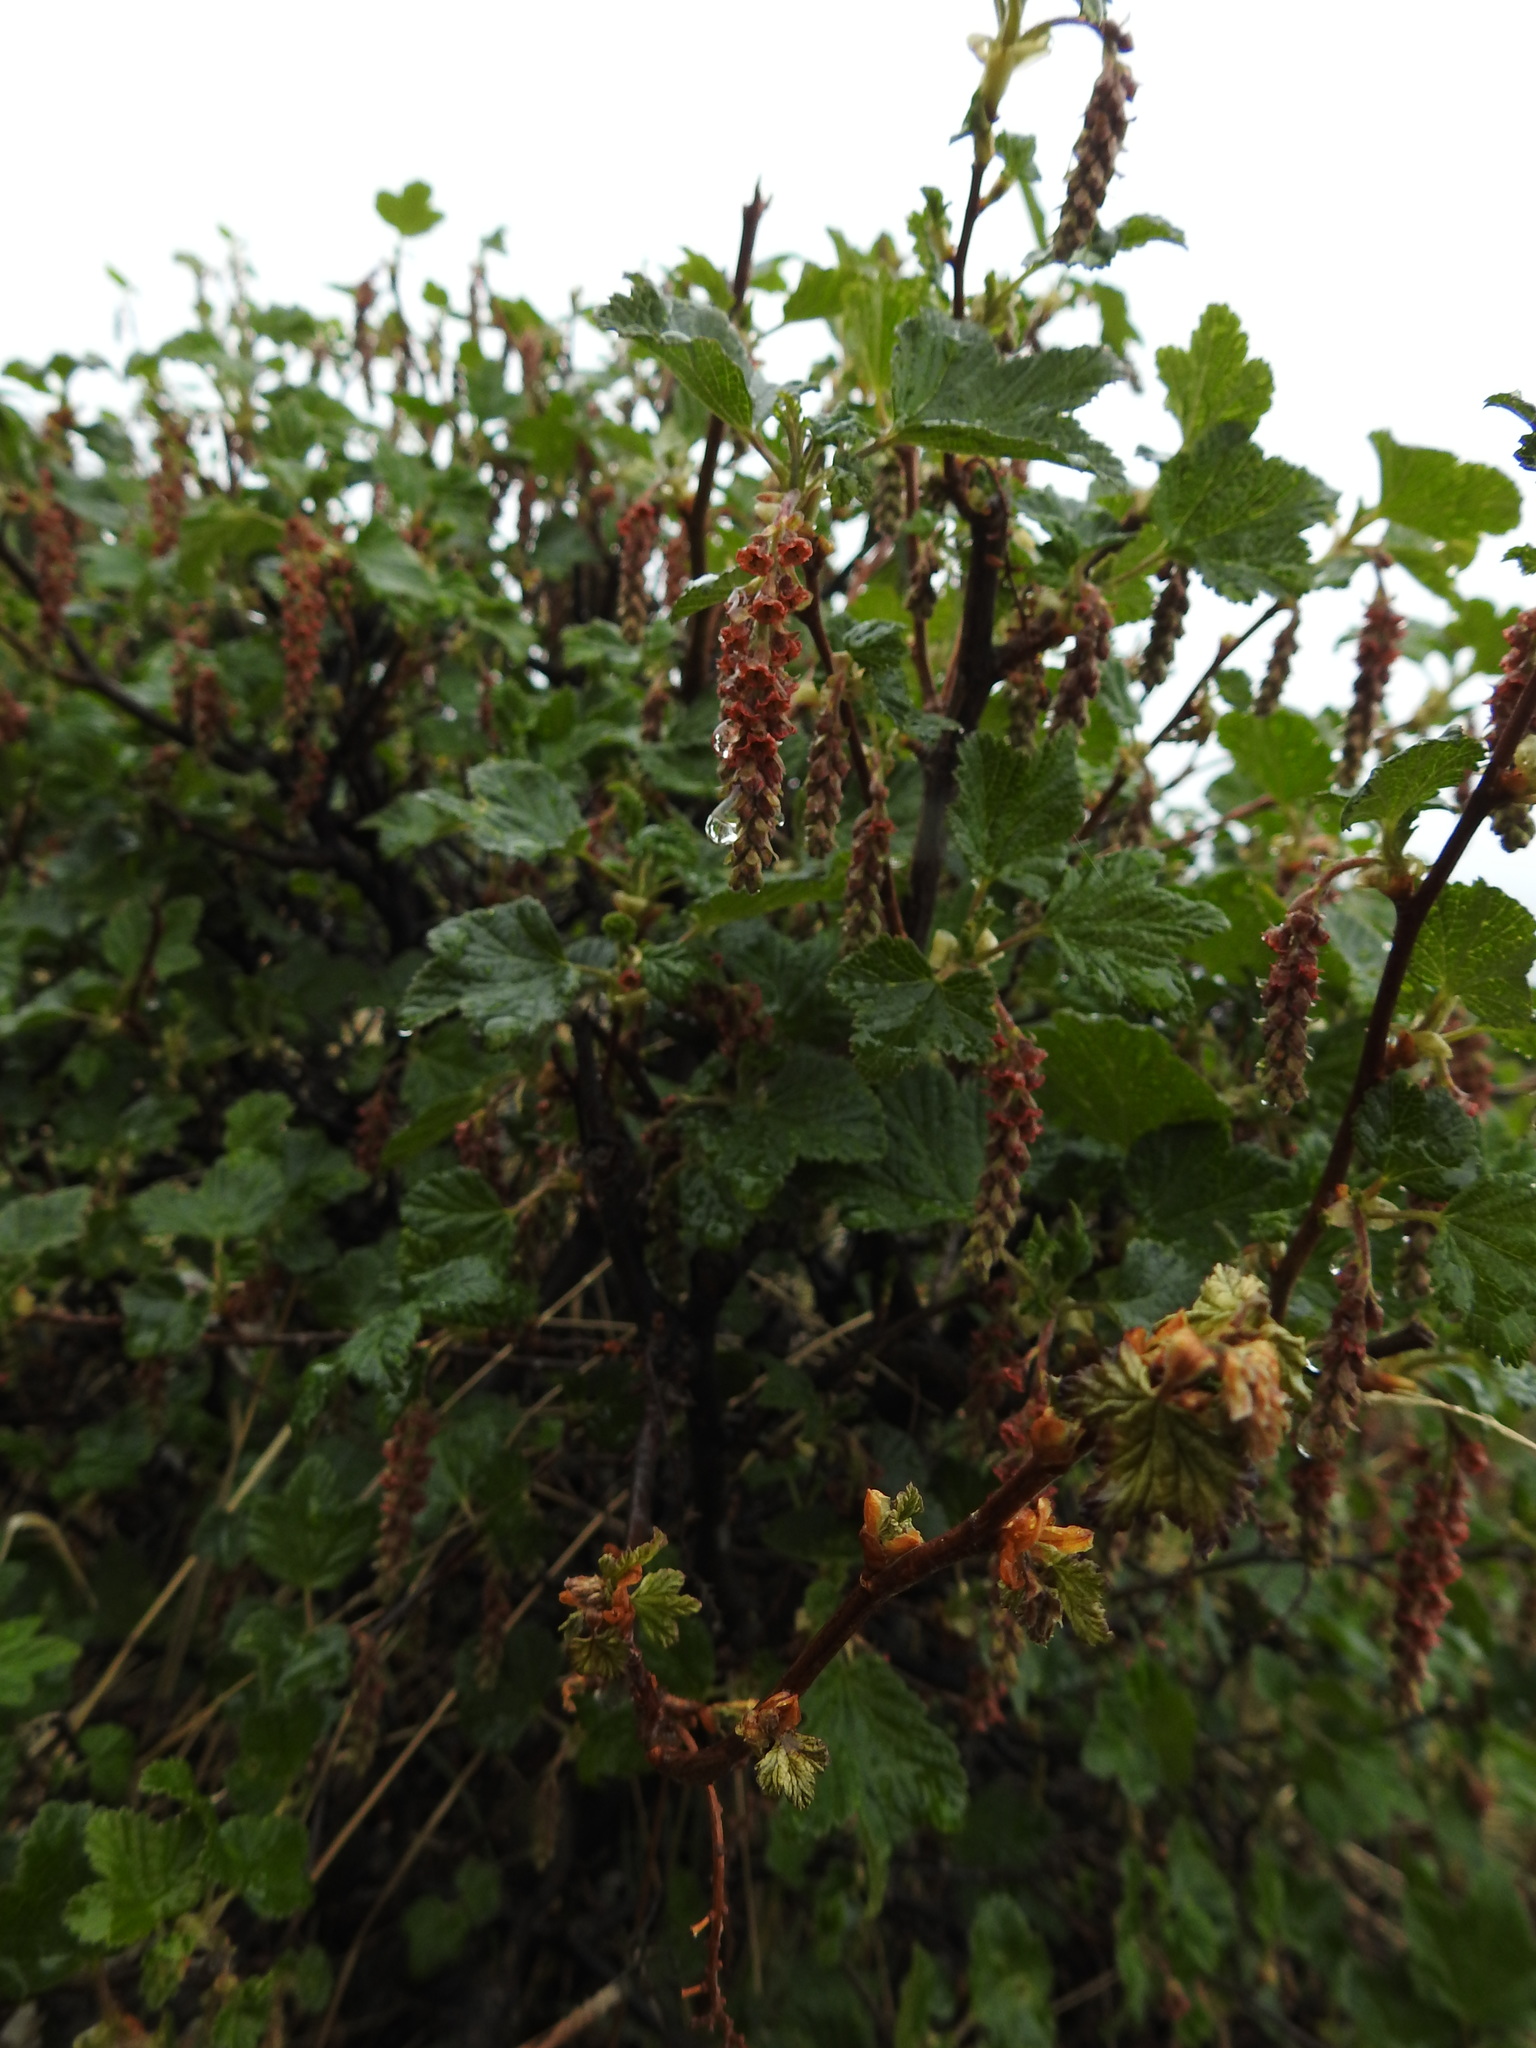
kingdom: Plantae
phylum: Tracheophyta
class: Magnoliopsida
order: Saxifragales
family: Grossulariaceae
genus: Ribes
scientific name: Ribes magellanicum
